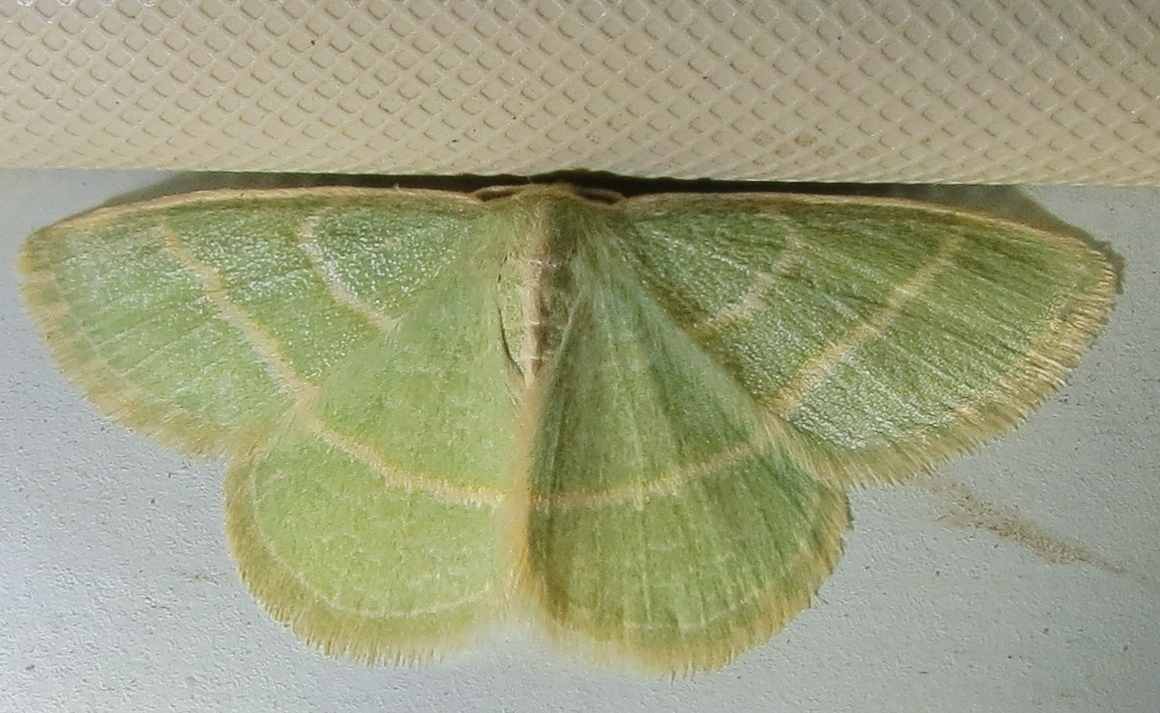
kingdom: Animalia
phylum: Arthropoda
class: Insecta
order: Lepidoptera
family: Geometridae
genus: Chlorochlamys
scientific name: Chlorochlamys chloroleucaria
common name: Blackberry looper
